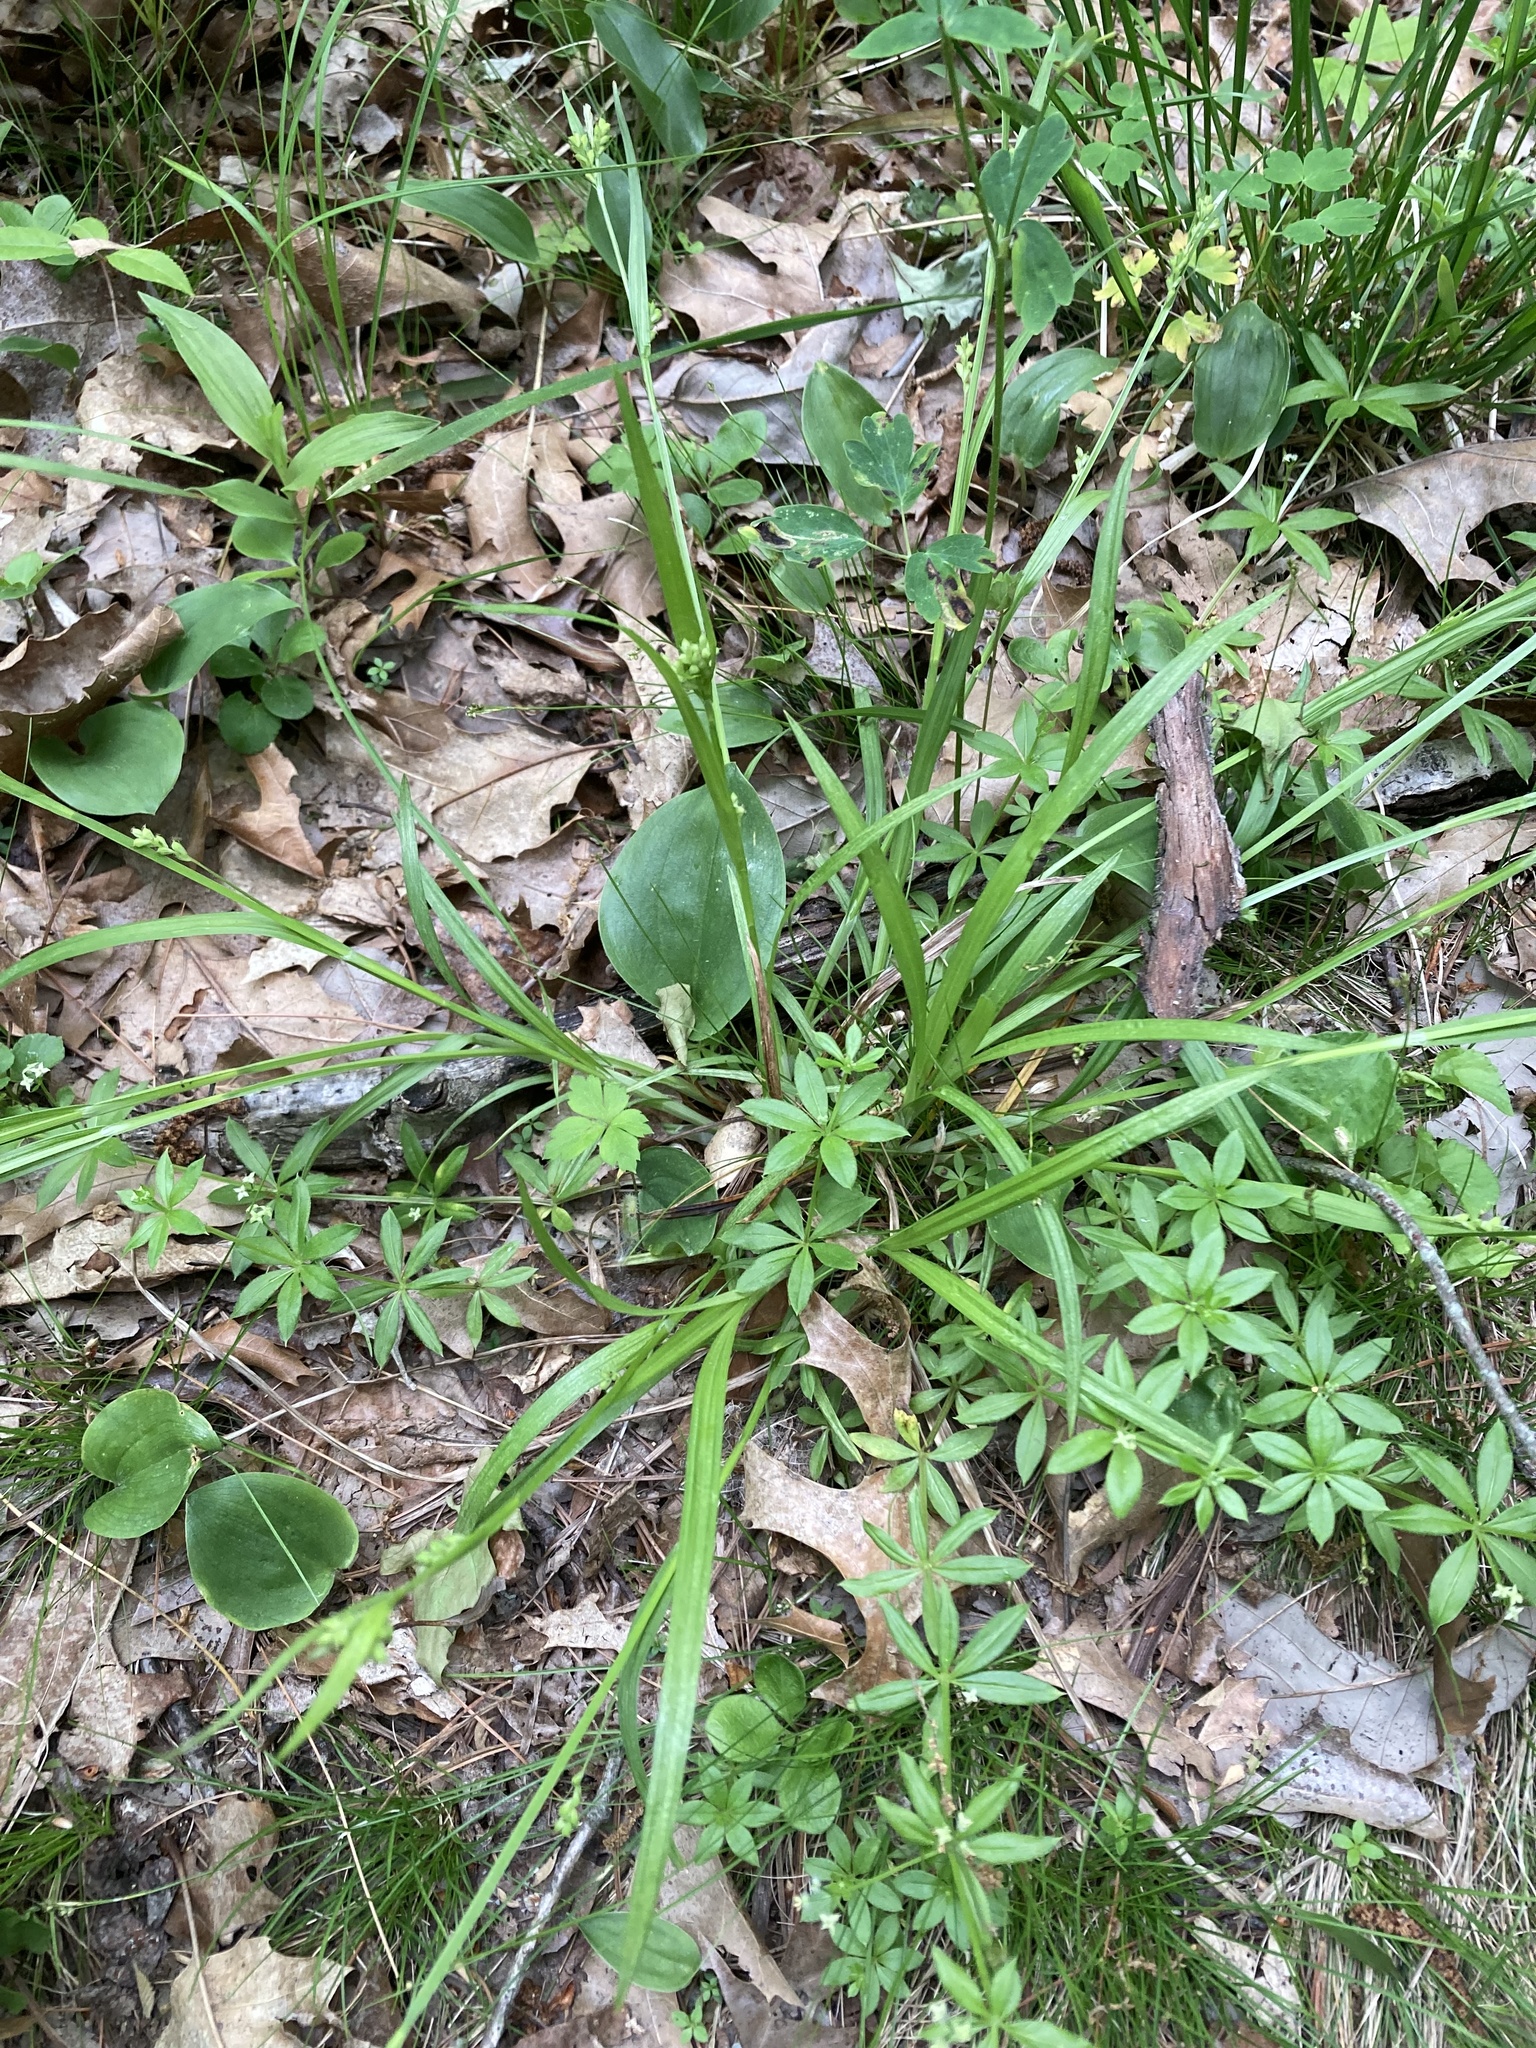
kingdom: Plantae
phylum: Tracheophyta
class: Liliopsida
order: Poales
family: Cyperaceae
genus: Carex
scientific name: Carex blanda
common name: Bland sedge
